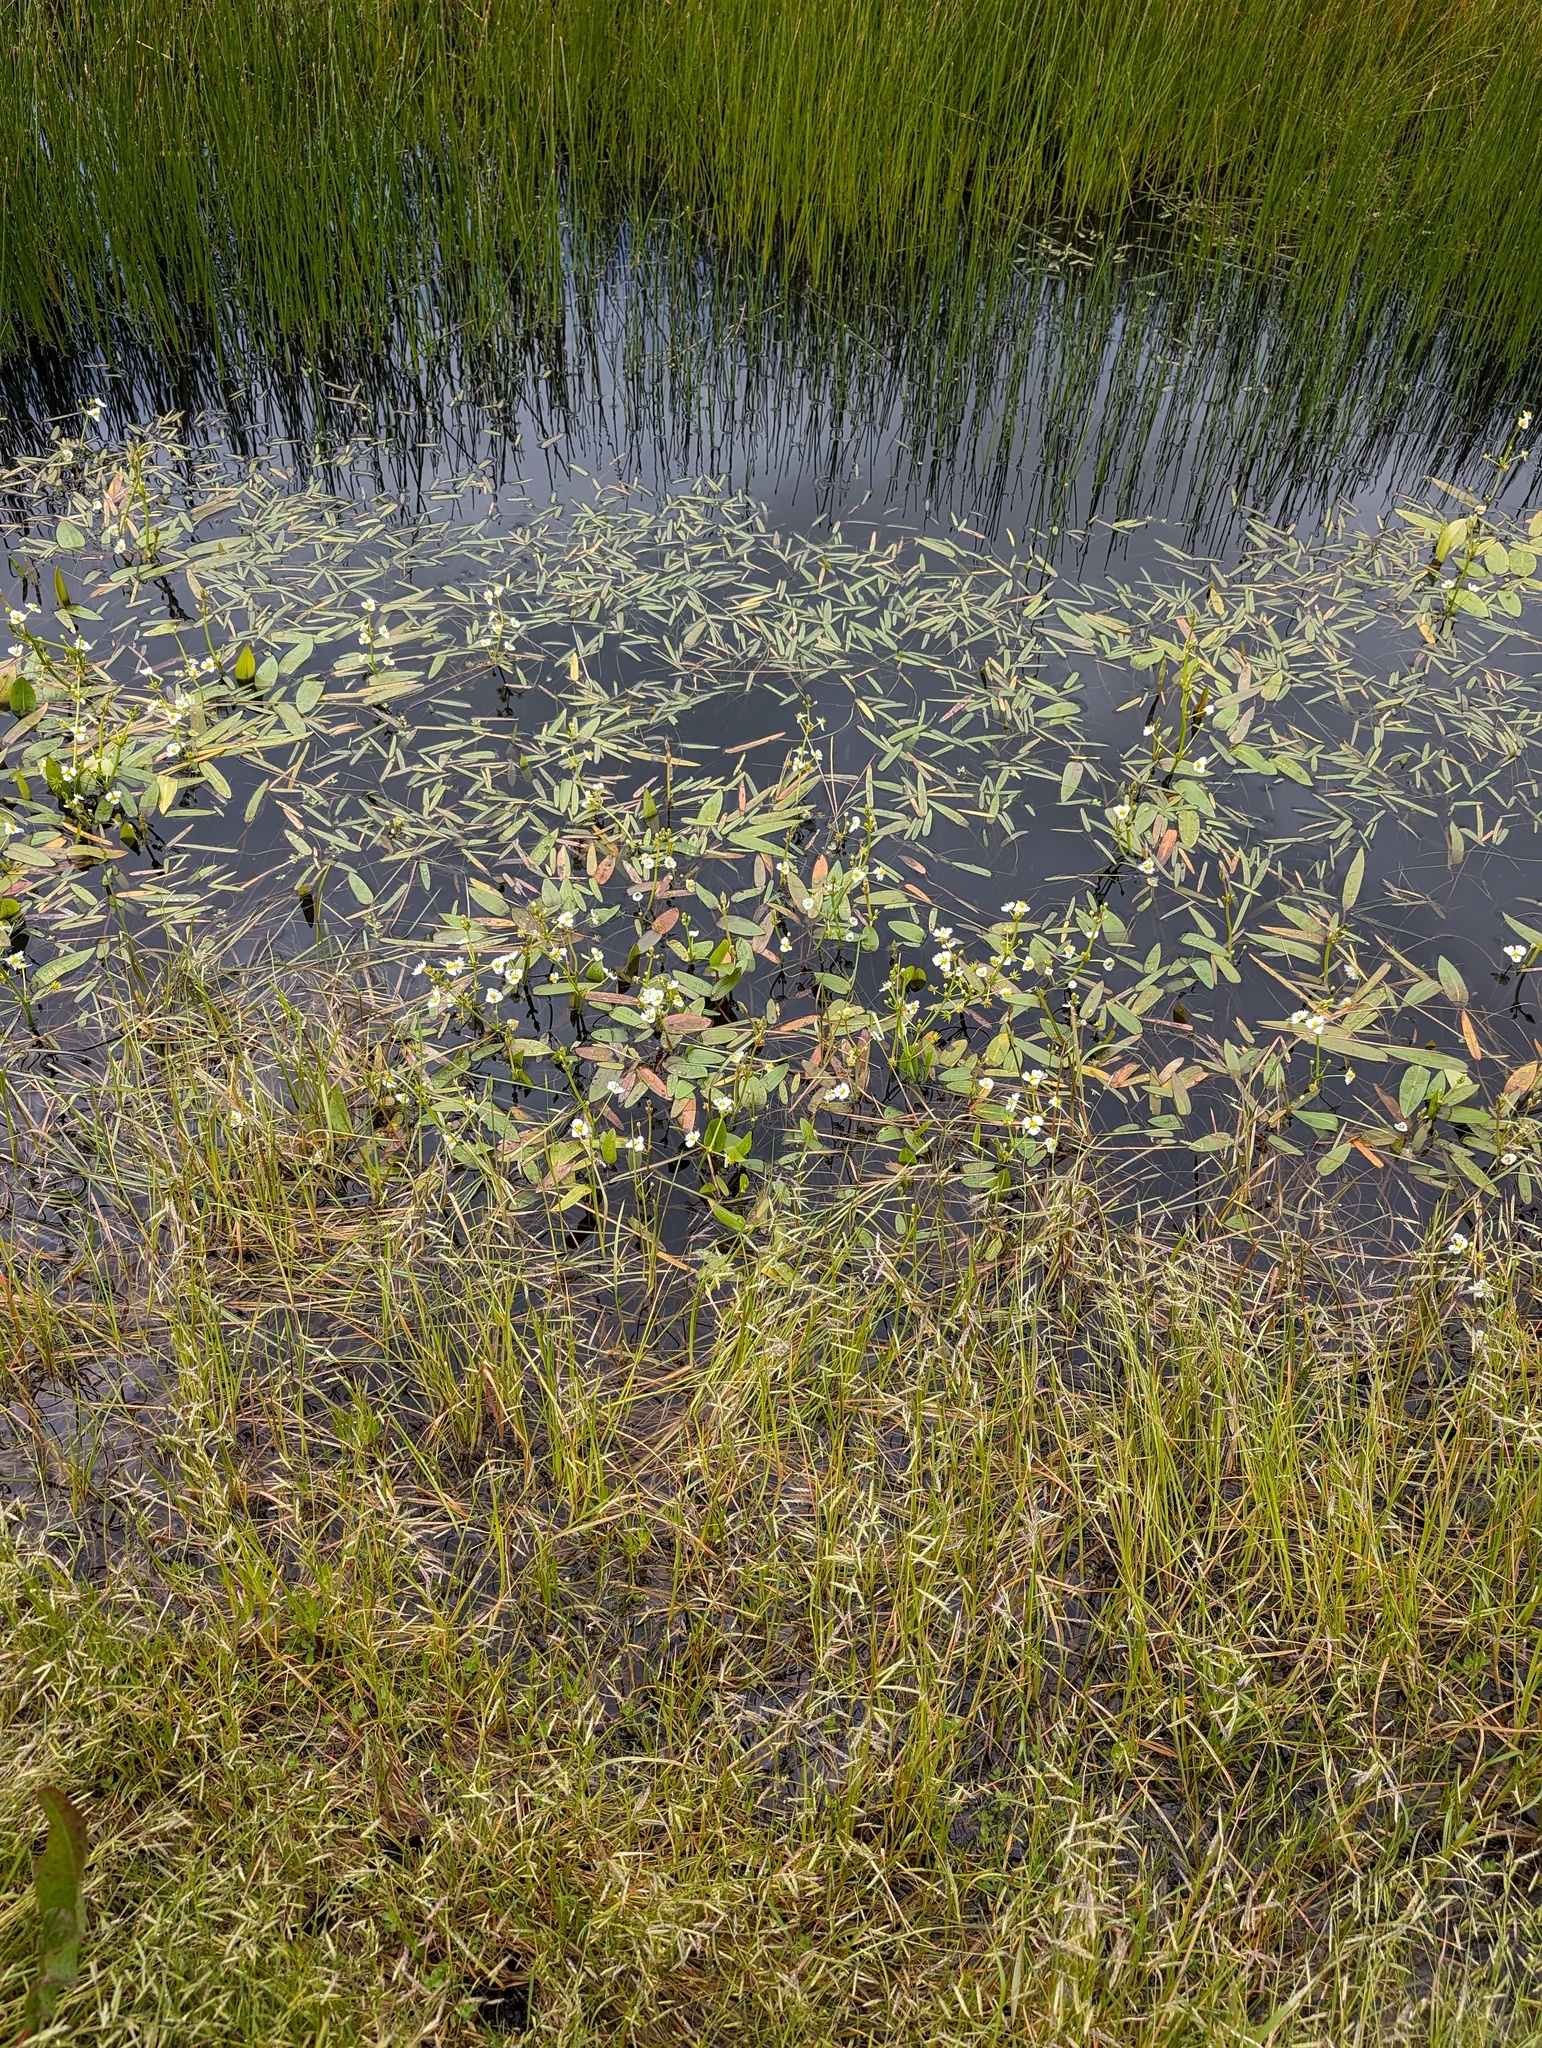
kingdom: Plantae
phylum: Tracheophyta
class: Liliopsida
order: Alismatales
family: Alismataceae
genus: Damasonium
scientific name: Damasonium californicum
